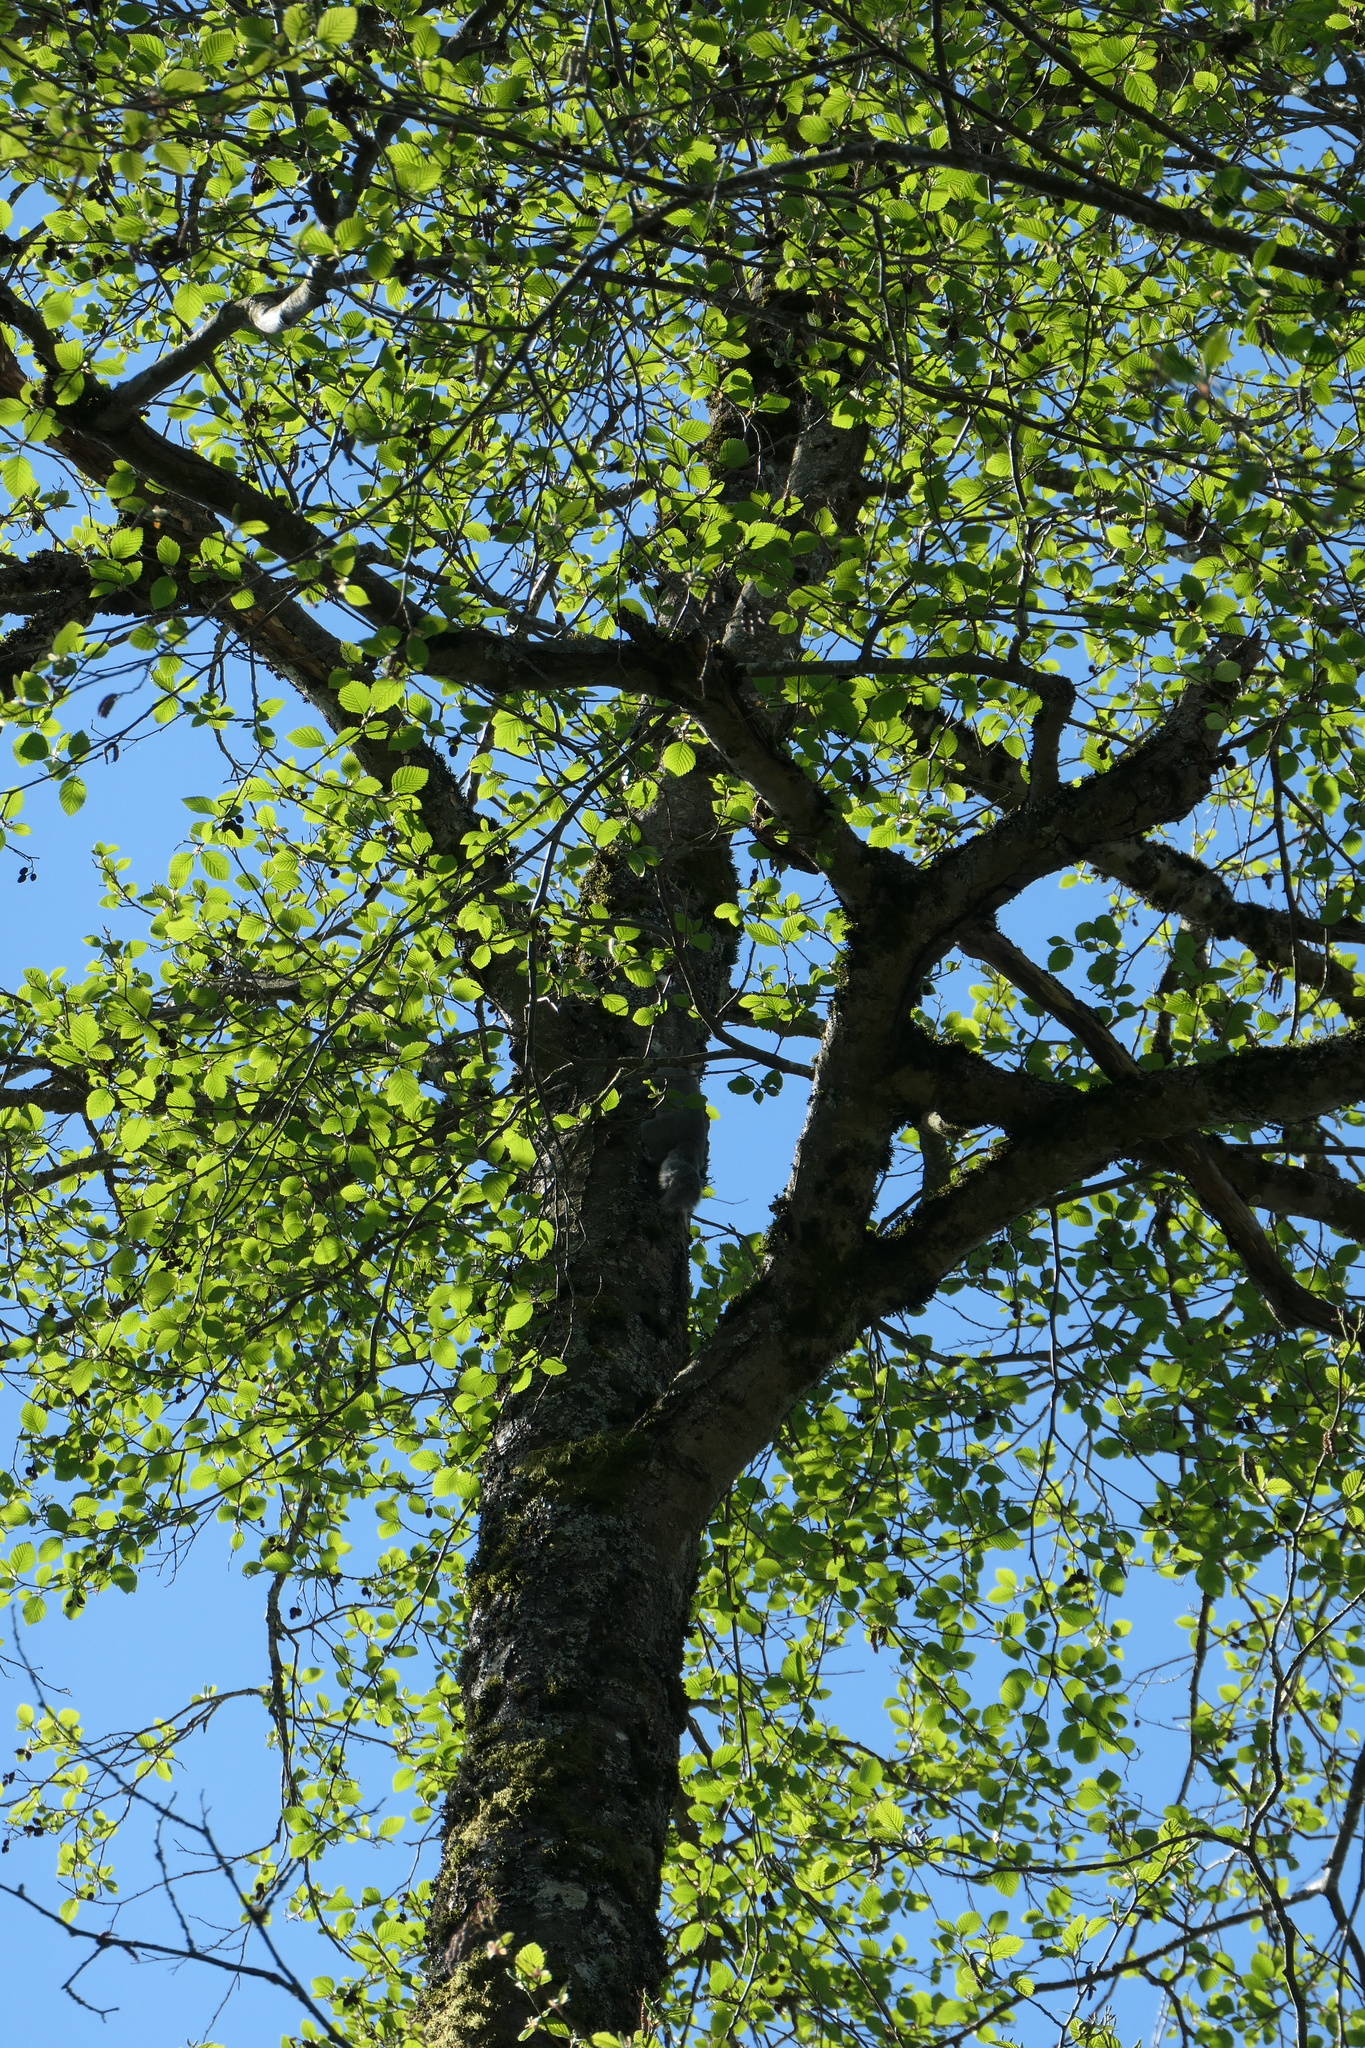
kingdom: Animalia
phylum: Chordata
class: Mammalia
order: Rodentia
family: Sciuridae
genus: Sciurus
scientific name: Sciurus carolinensis
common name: Eastern gray squirrel
